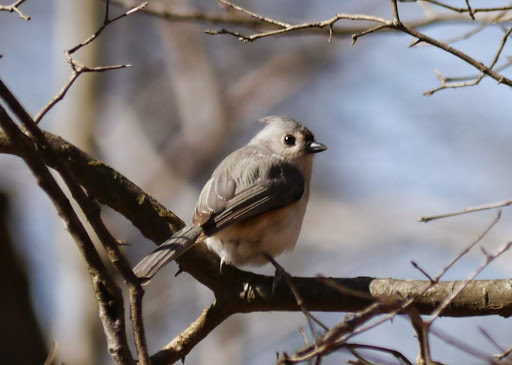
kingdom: Animalia
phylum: Chordata
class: Aves
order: Passeriformes
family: Paridae
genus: Baeolophus
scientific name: Baeolophus bicolor
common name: Tufted titmouse
